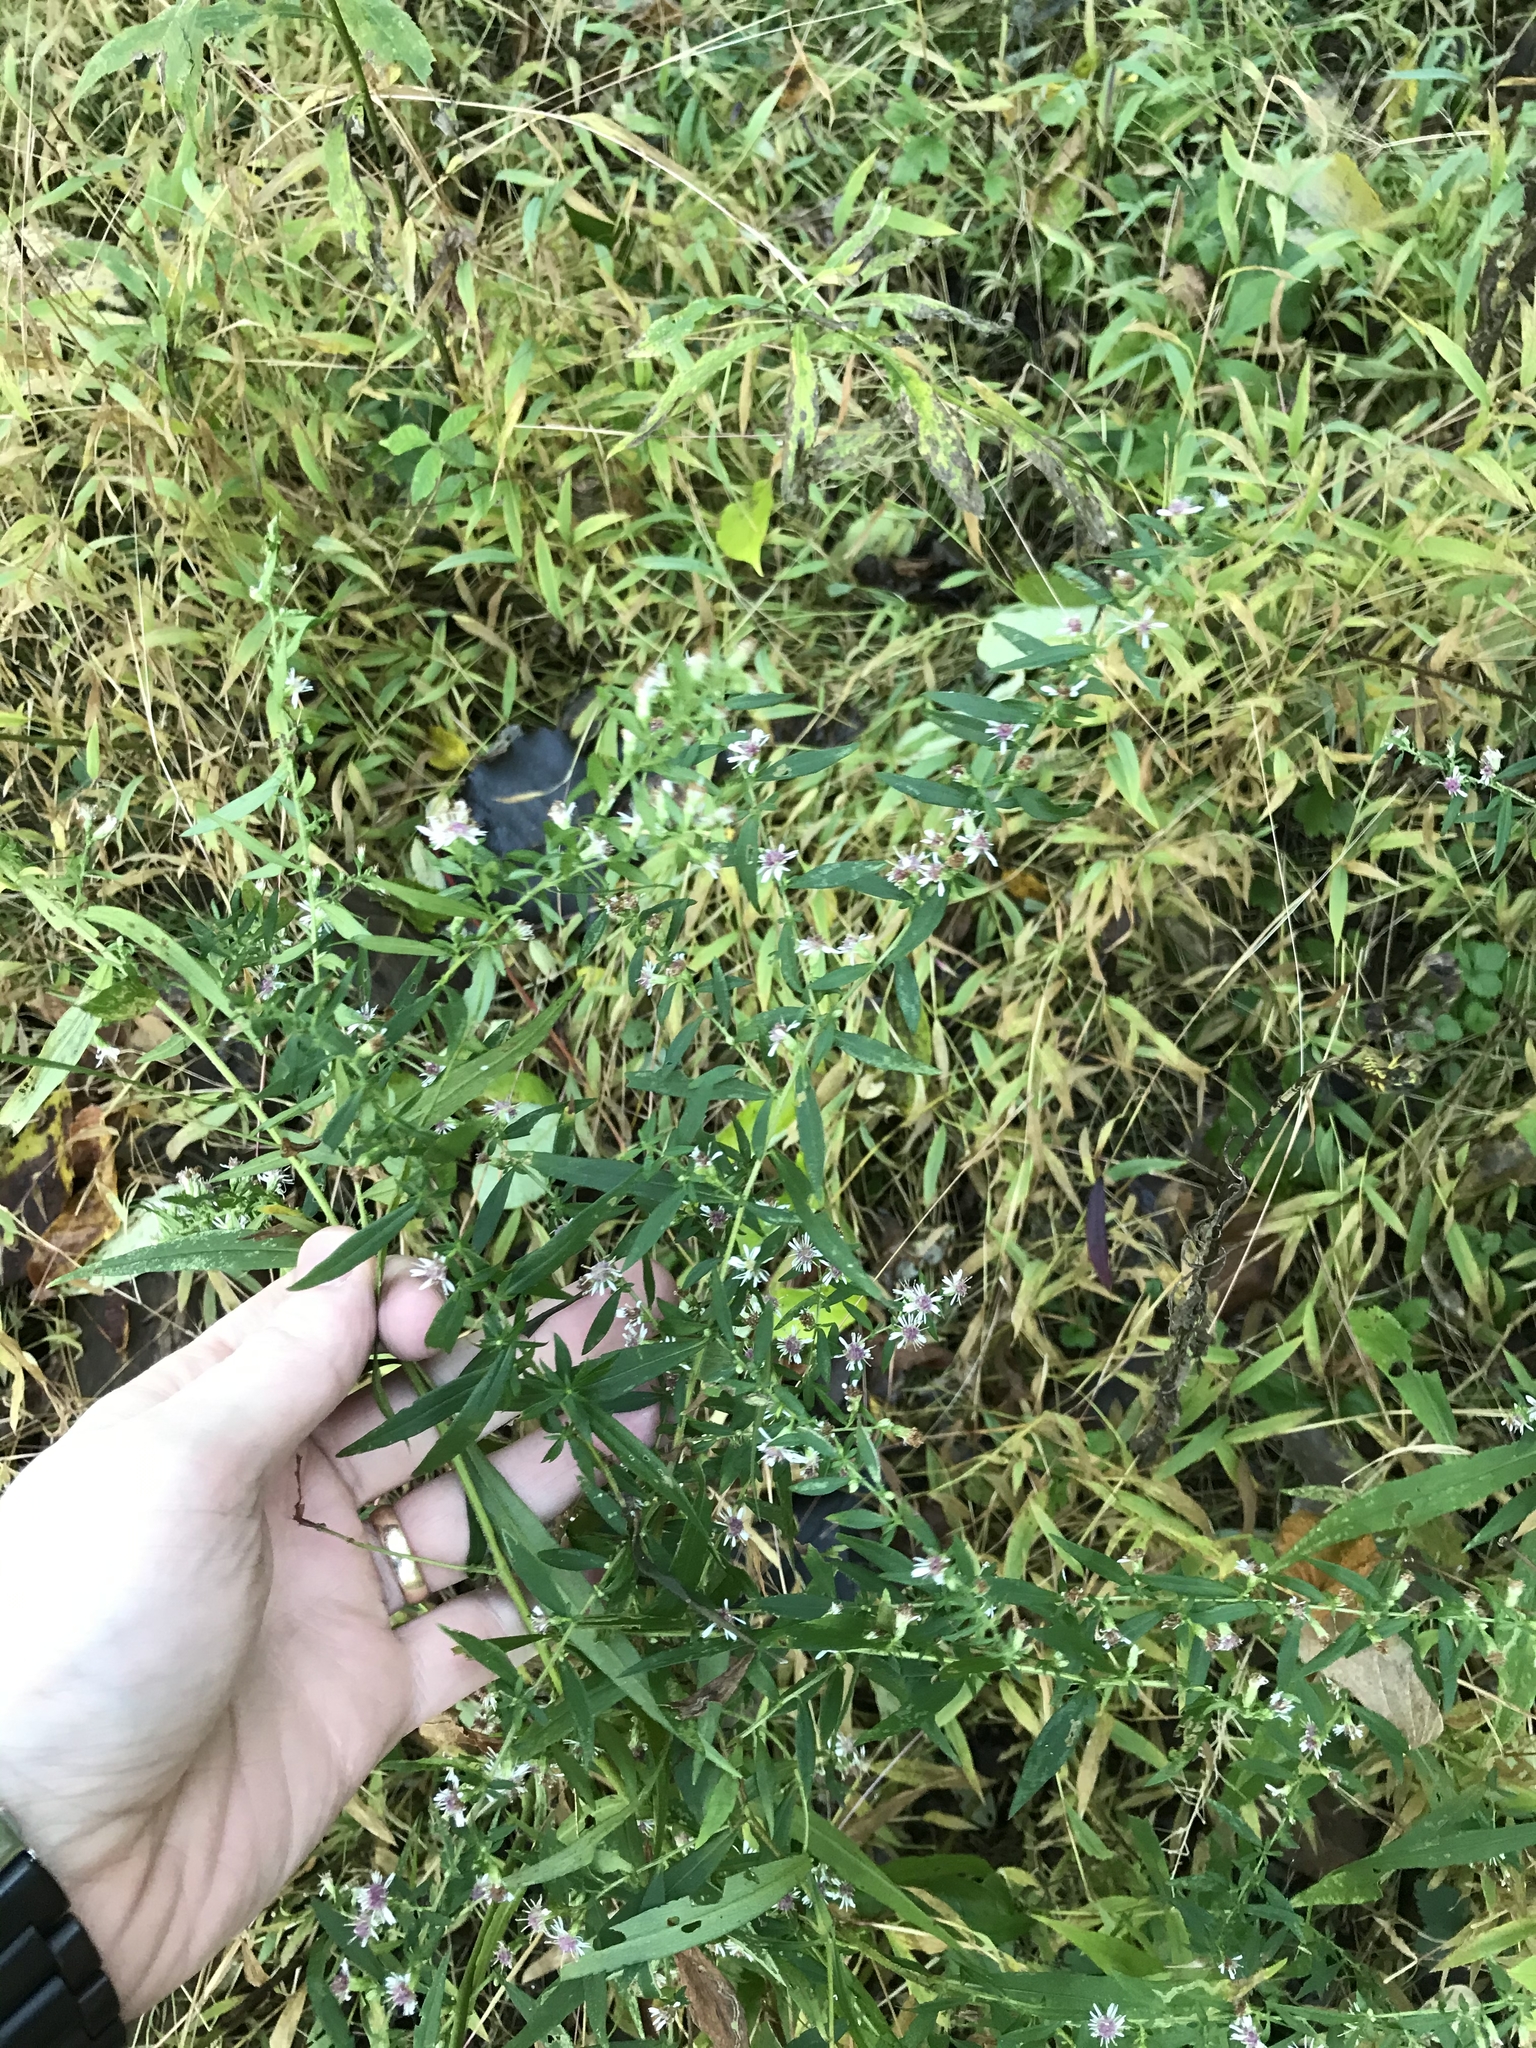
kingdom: Plantae
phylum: Tracheophyta
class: Magnoliopsida
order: Asterales
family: Asteraceae
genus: Symphyotrichum
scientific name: Symphyotrichum lateriflorum
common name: Calico aster
